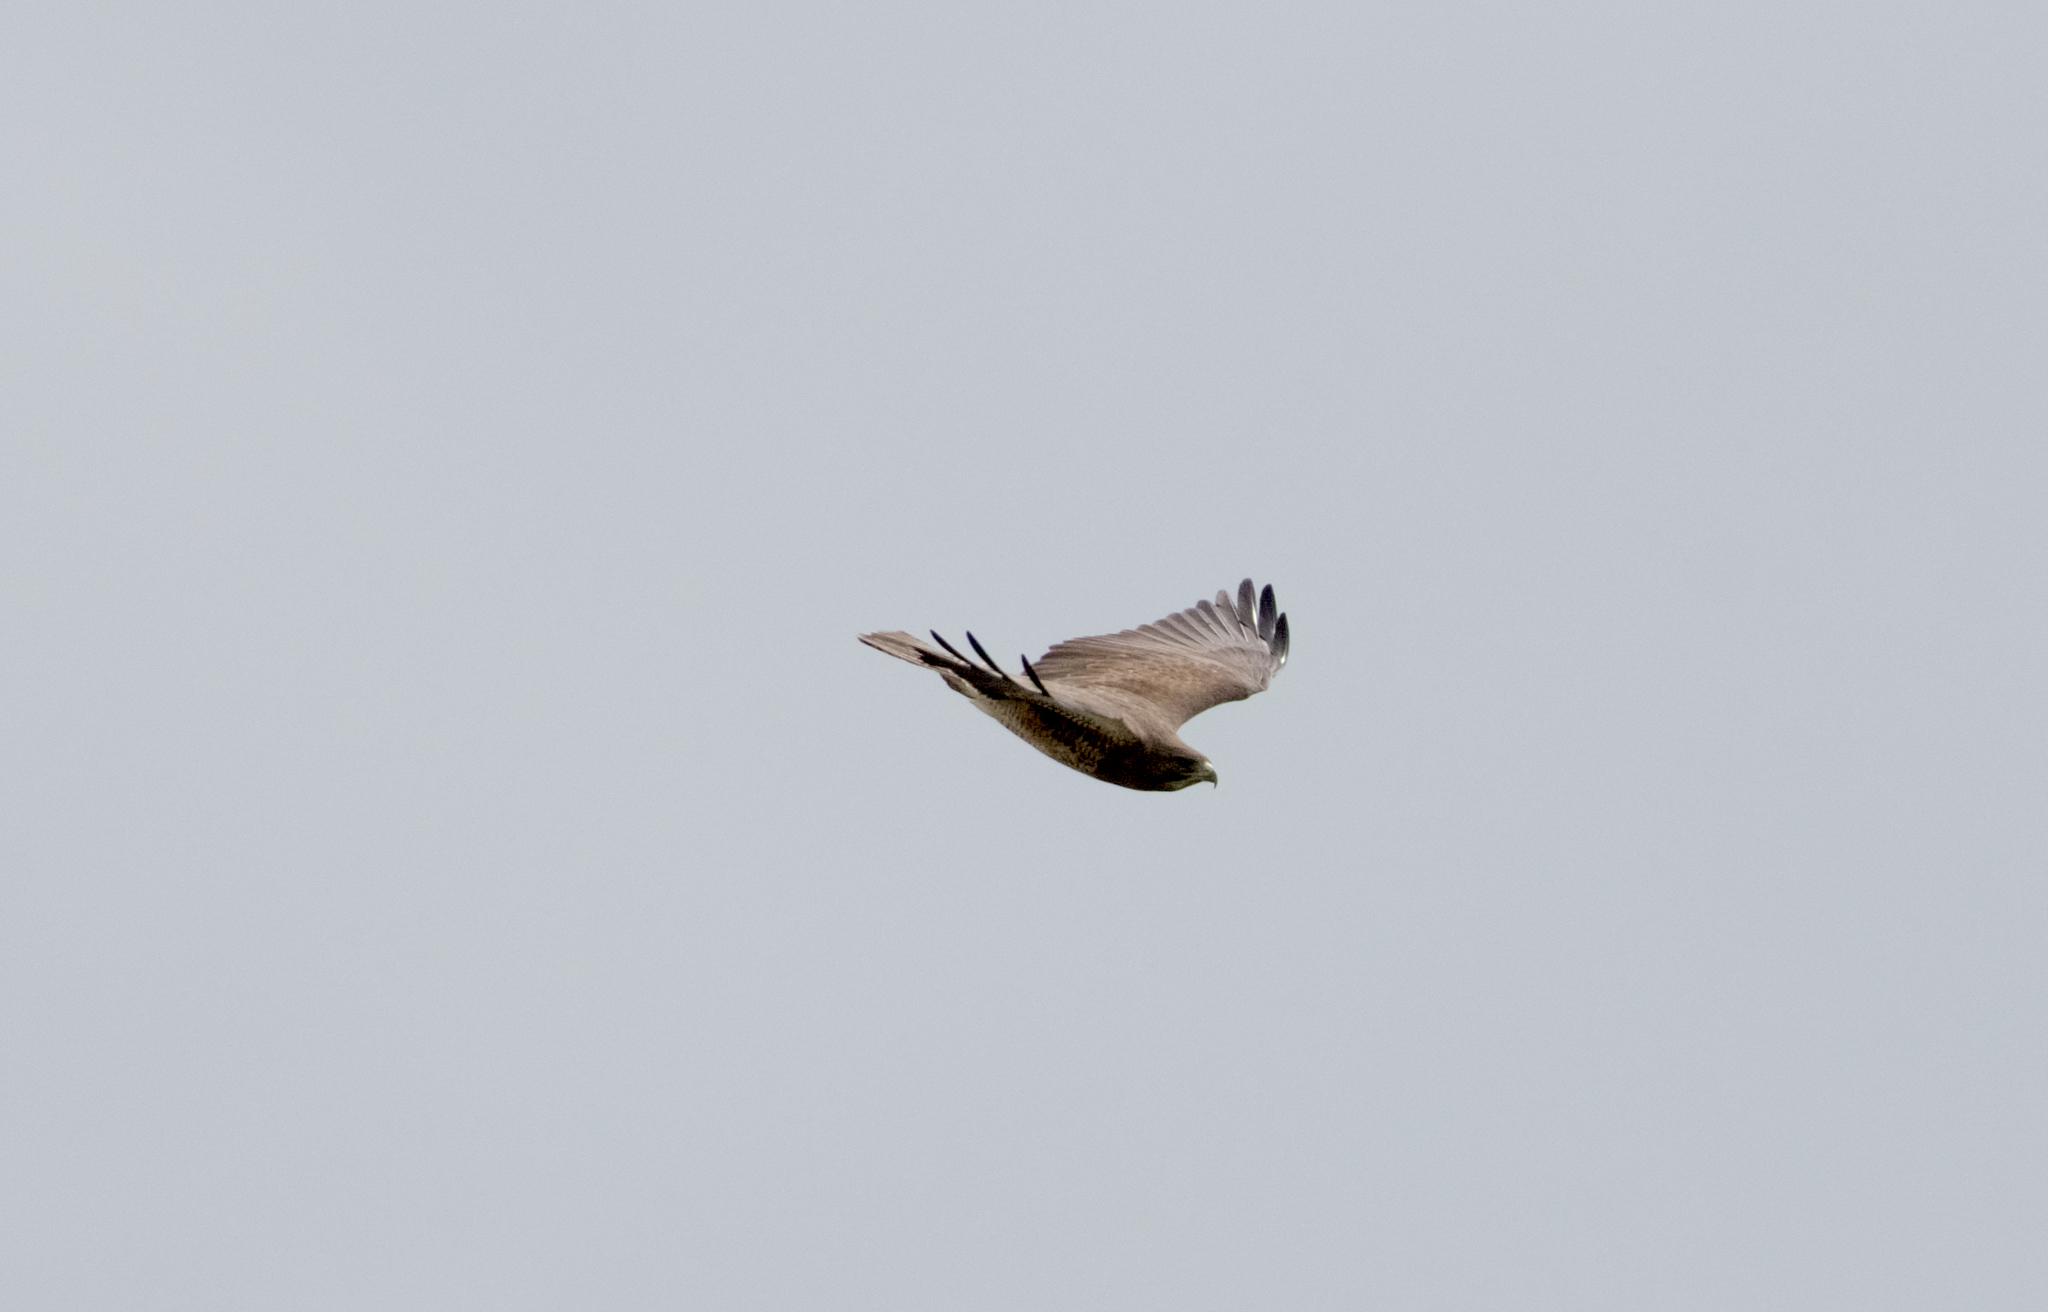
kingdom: Animalia
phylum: Chordata
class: Aves
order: Accipitriformes
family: Accipitridae
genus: Buteo
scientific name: Buteo swainsoni
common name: Swainson's hawk
